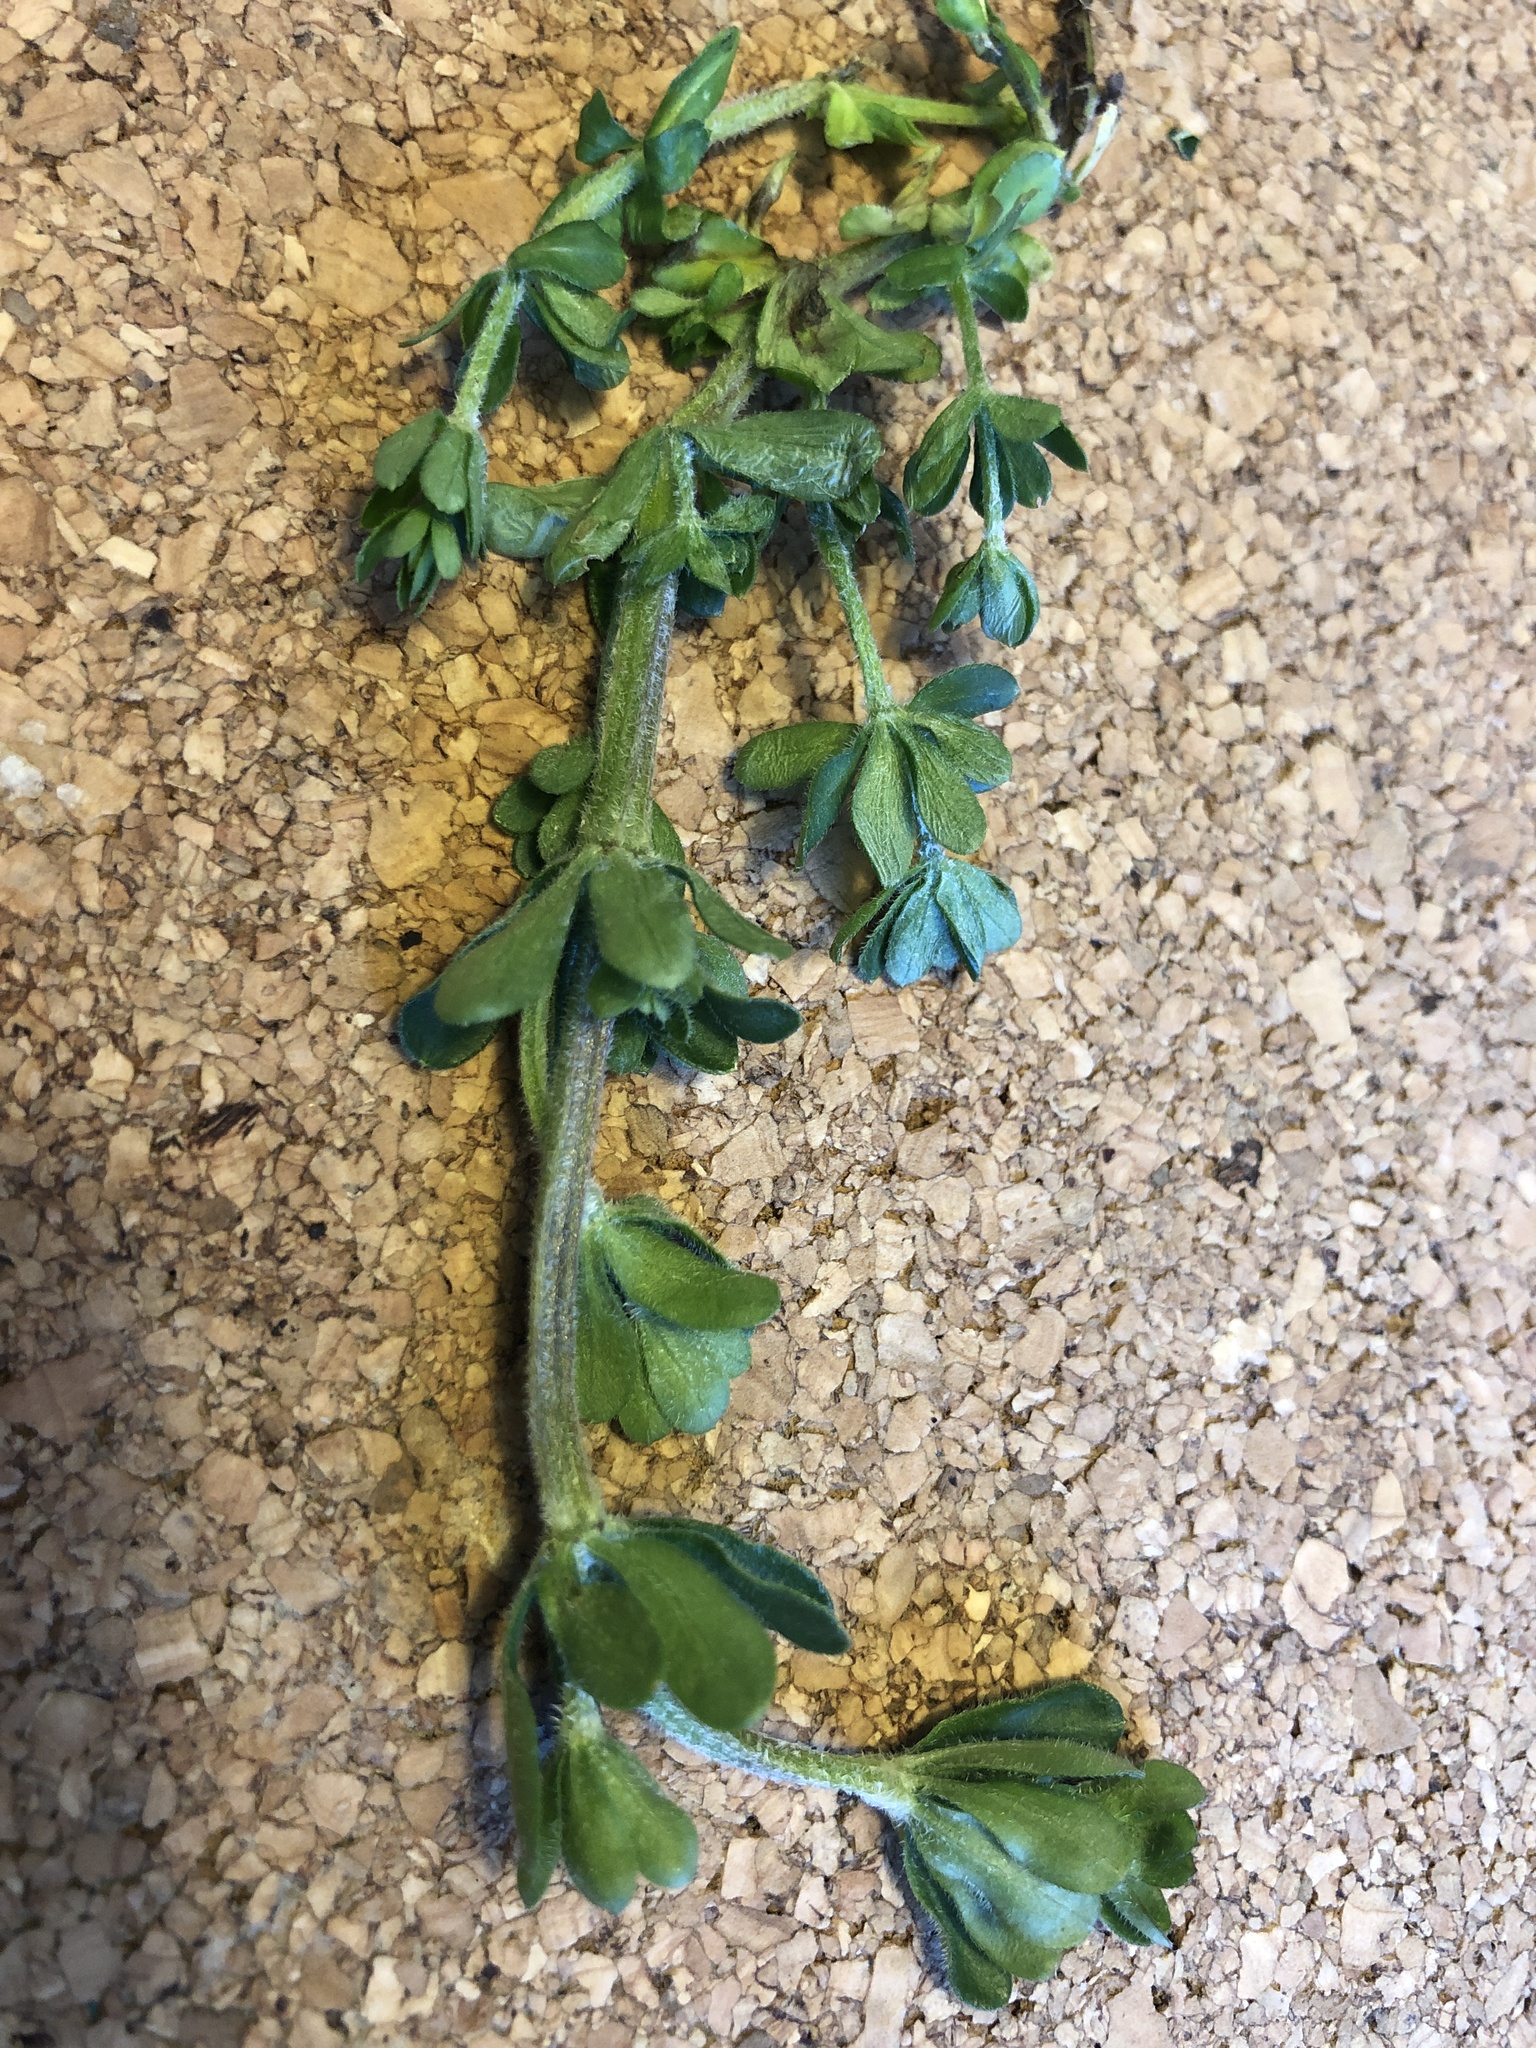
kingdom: Plantae
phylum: Tracheophyta
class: Magnoliopsida
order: Gentianales
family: Rubiaceae
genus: Galium
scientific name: Galium album
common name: White bedstraw
